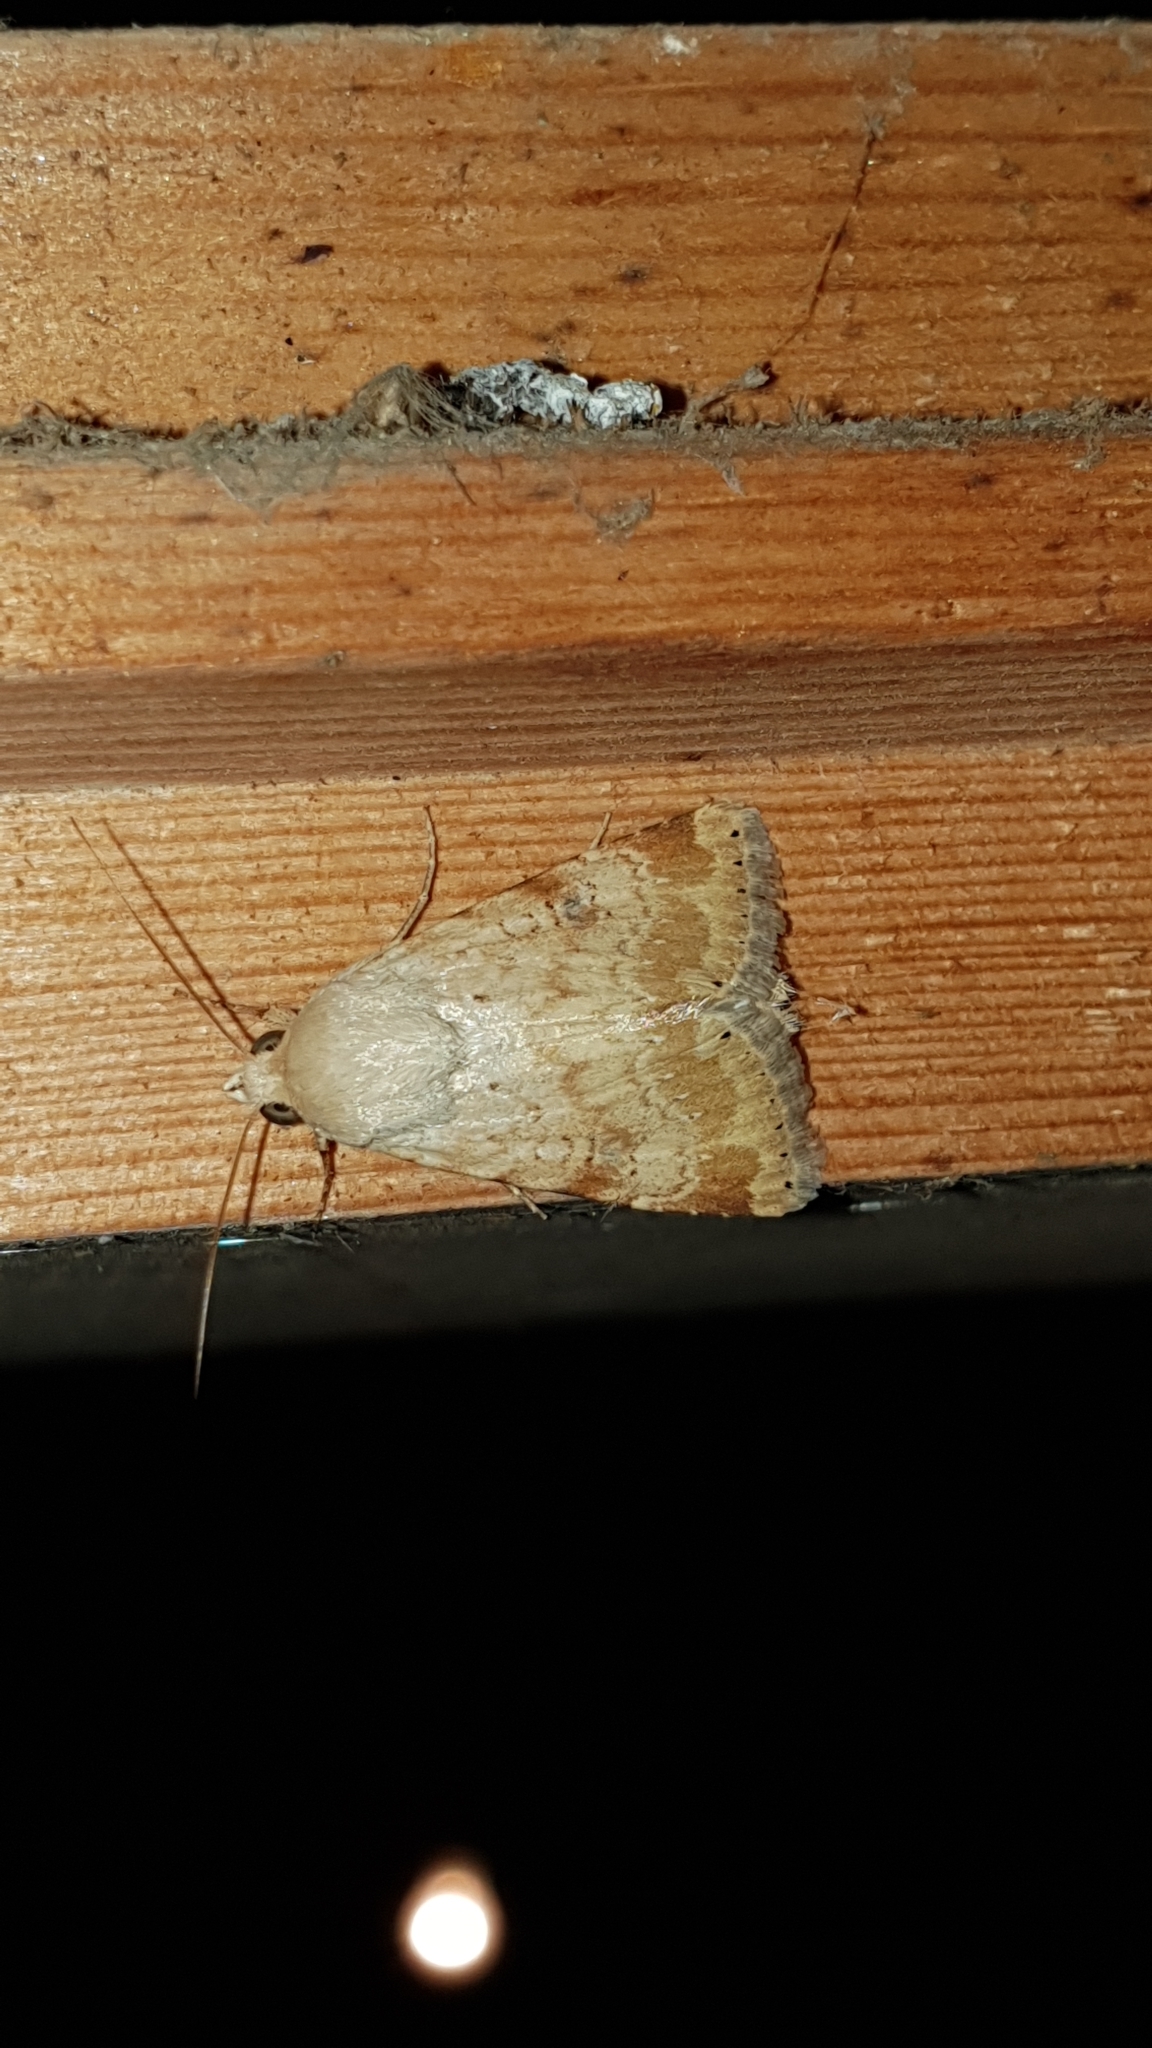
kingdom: Animalia
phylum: Arthropoda
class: Insecta
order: Lepidoptera
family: Noctuidae
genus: Heliothis
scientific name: Heliothis nubigera
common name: Eastern bordered straw
